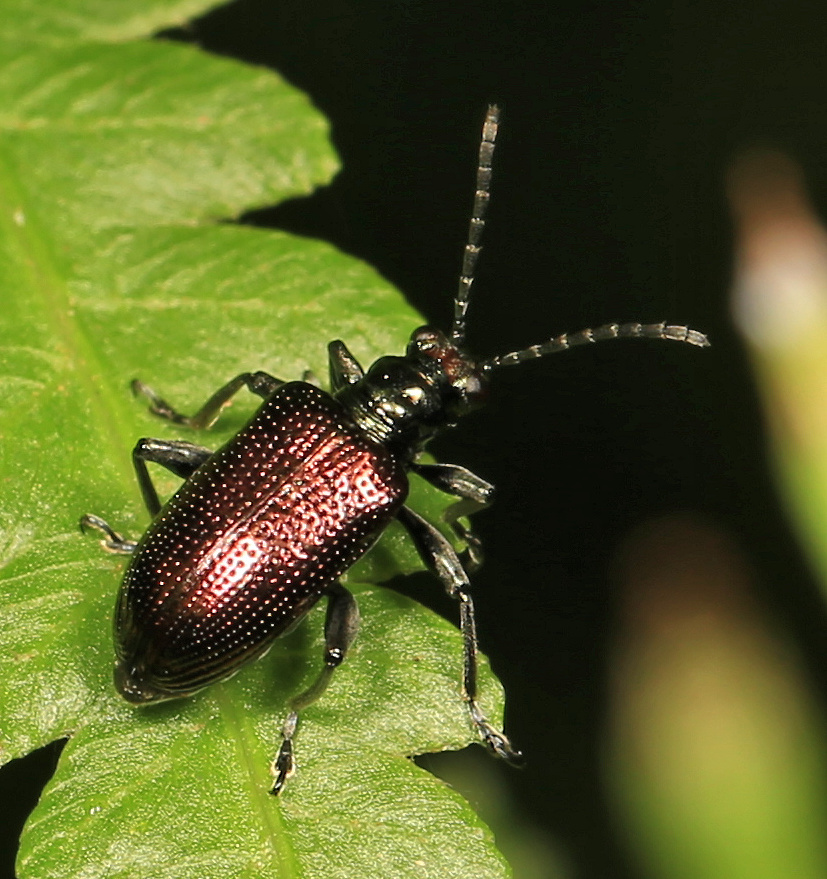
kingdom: Animalia
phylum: Arthropoda
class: Insecta
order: Coleoptera
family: Chrysomelidae
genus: Lema
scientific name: Lema
